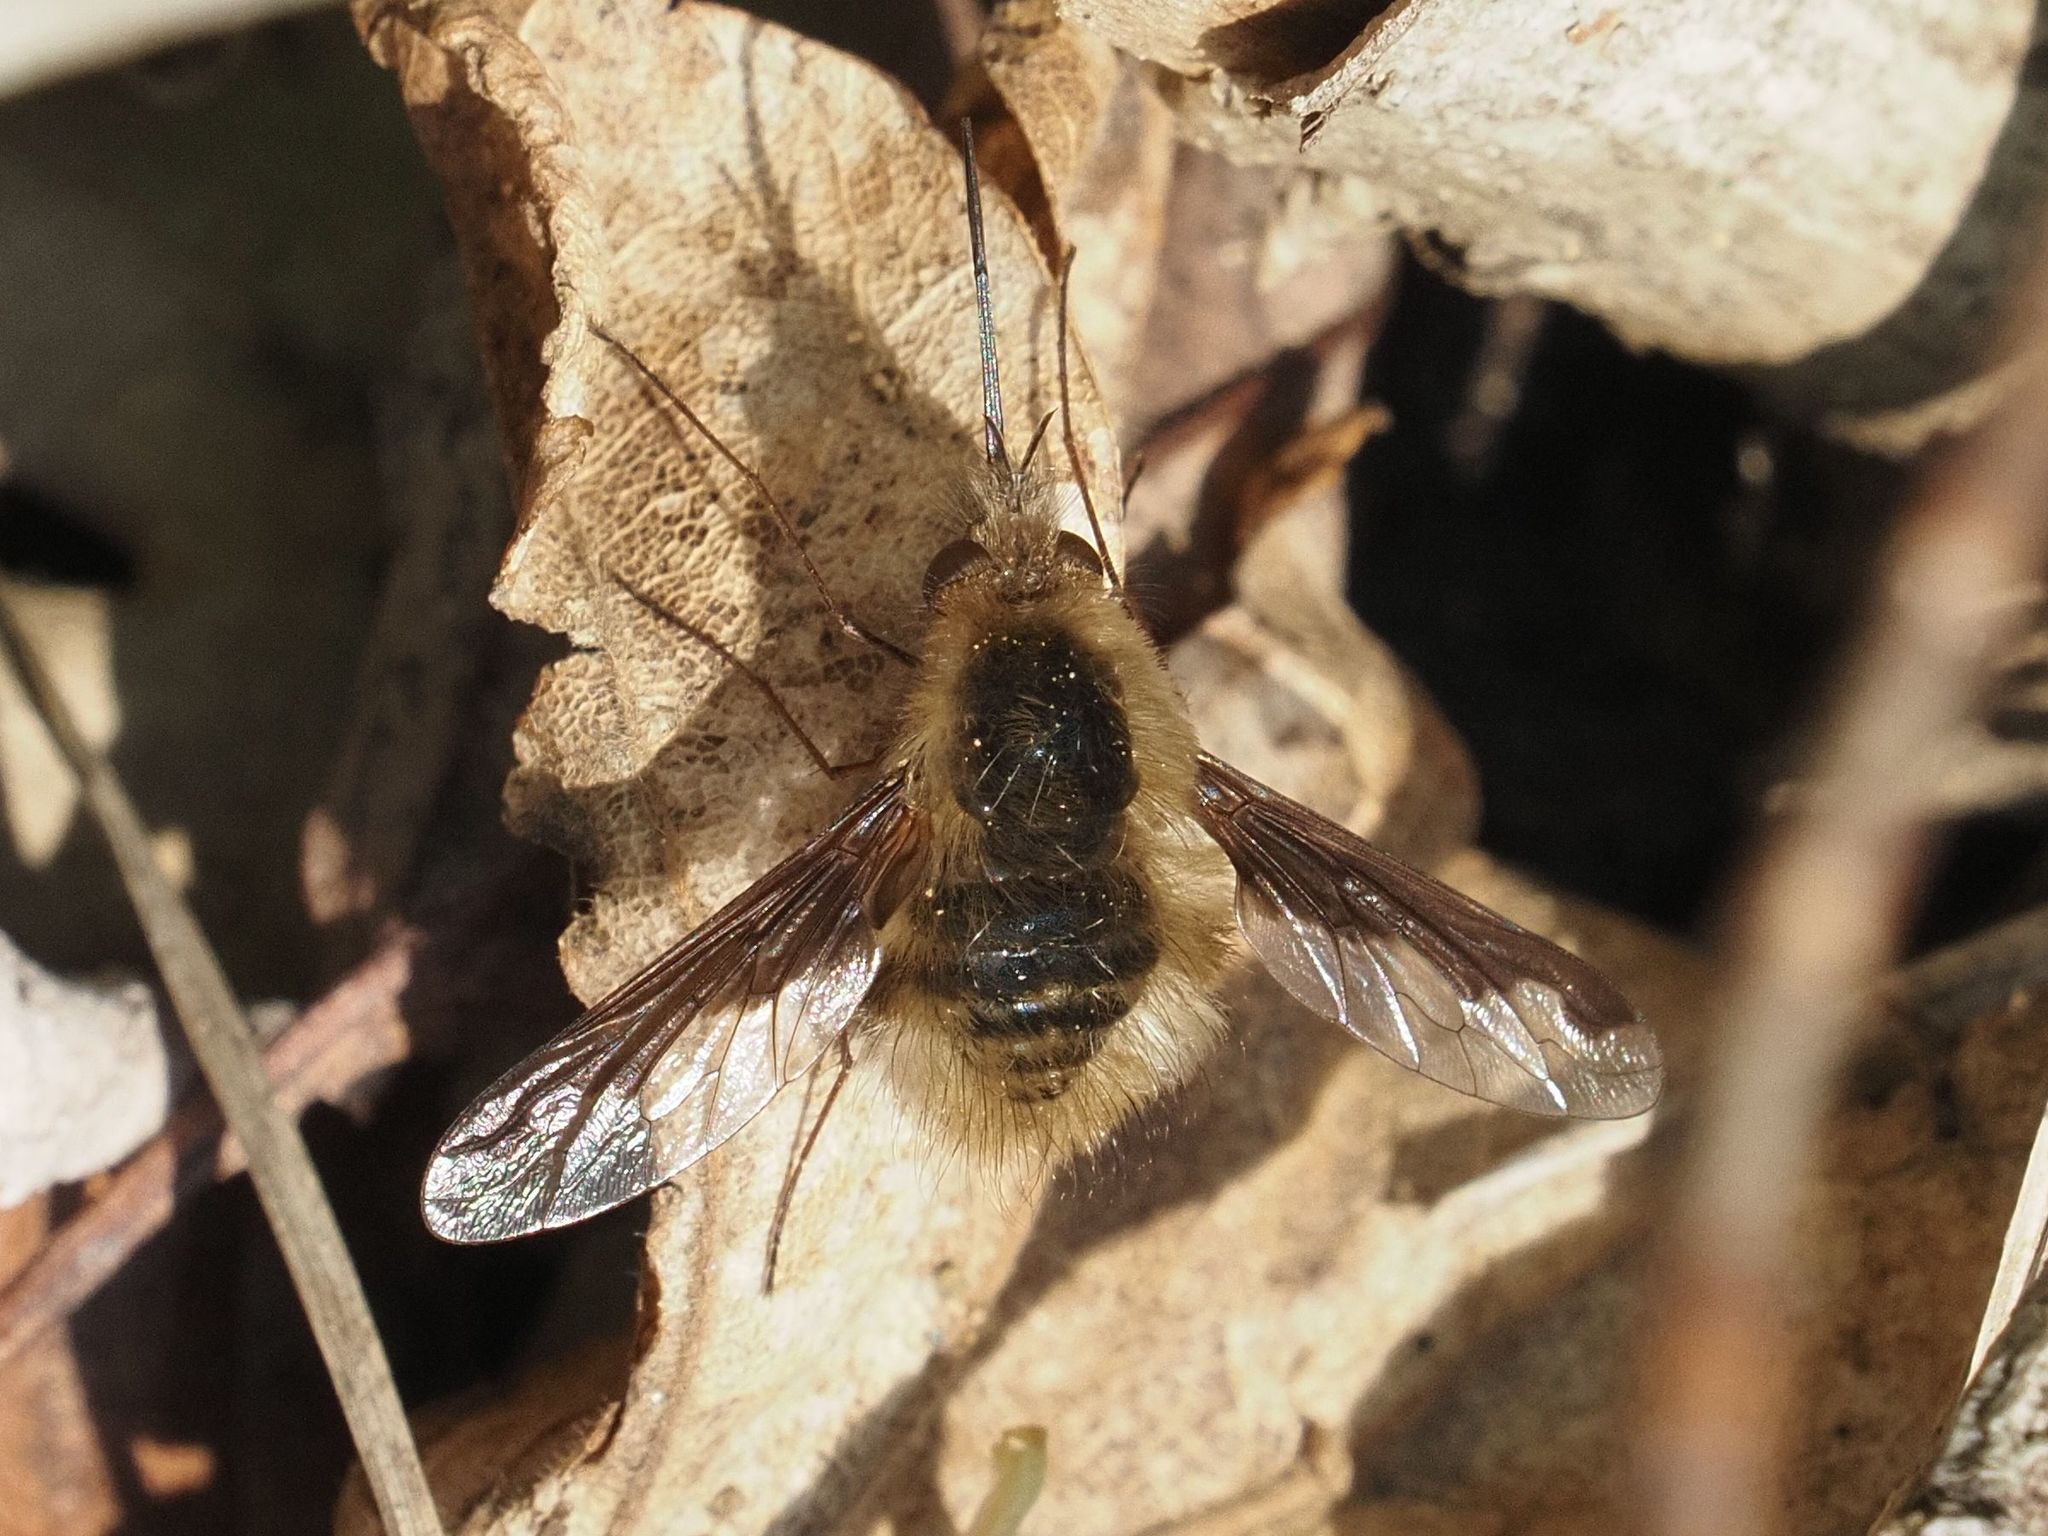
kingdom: Animalia
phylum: Arthropoda
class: Insecta
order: Diptera
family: Bombyliidae
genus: Bombylius
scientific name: Bombylius major
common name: Bee fly
